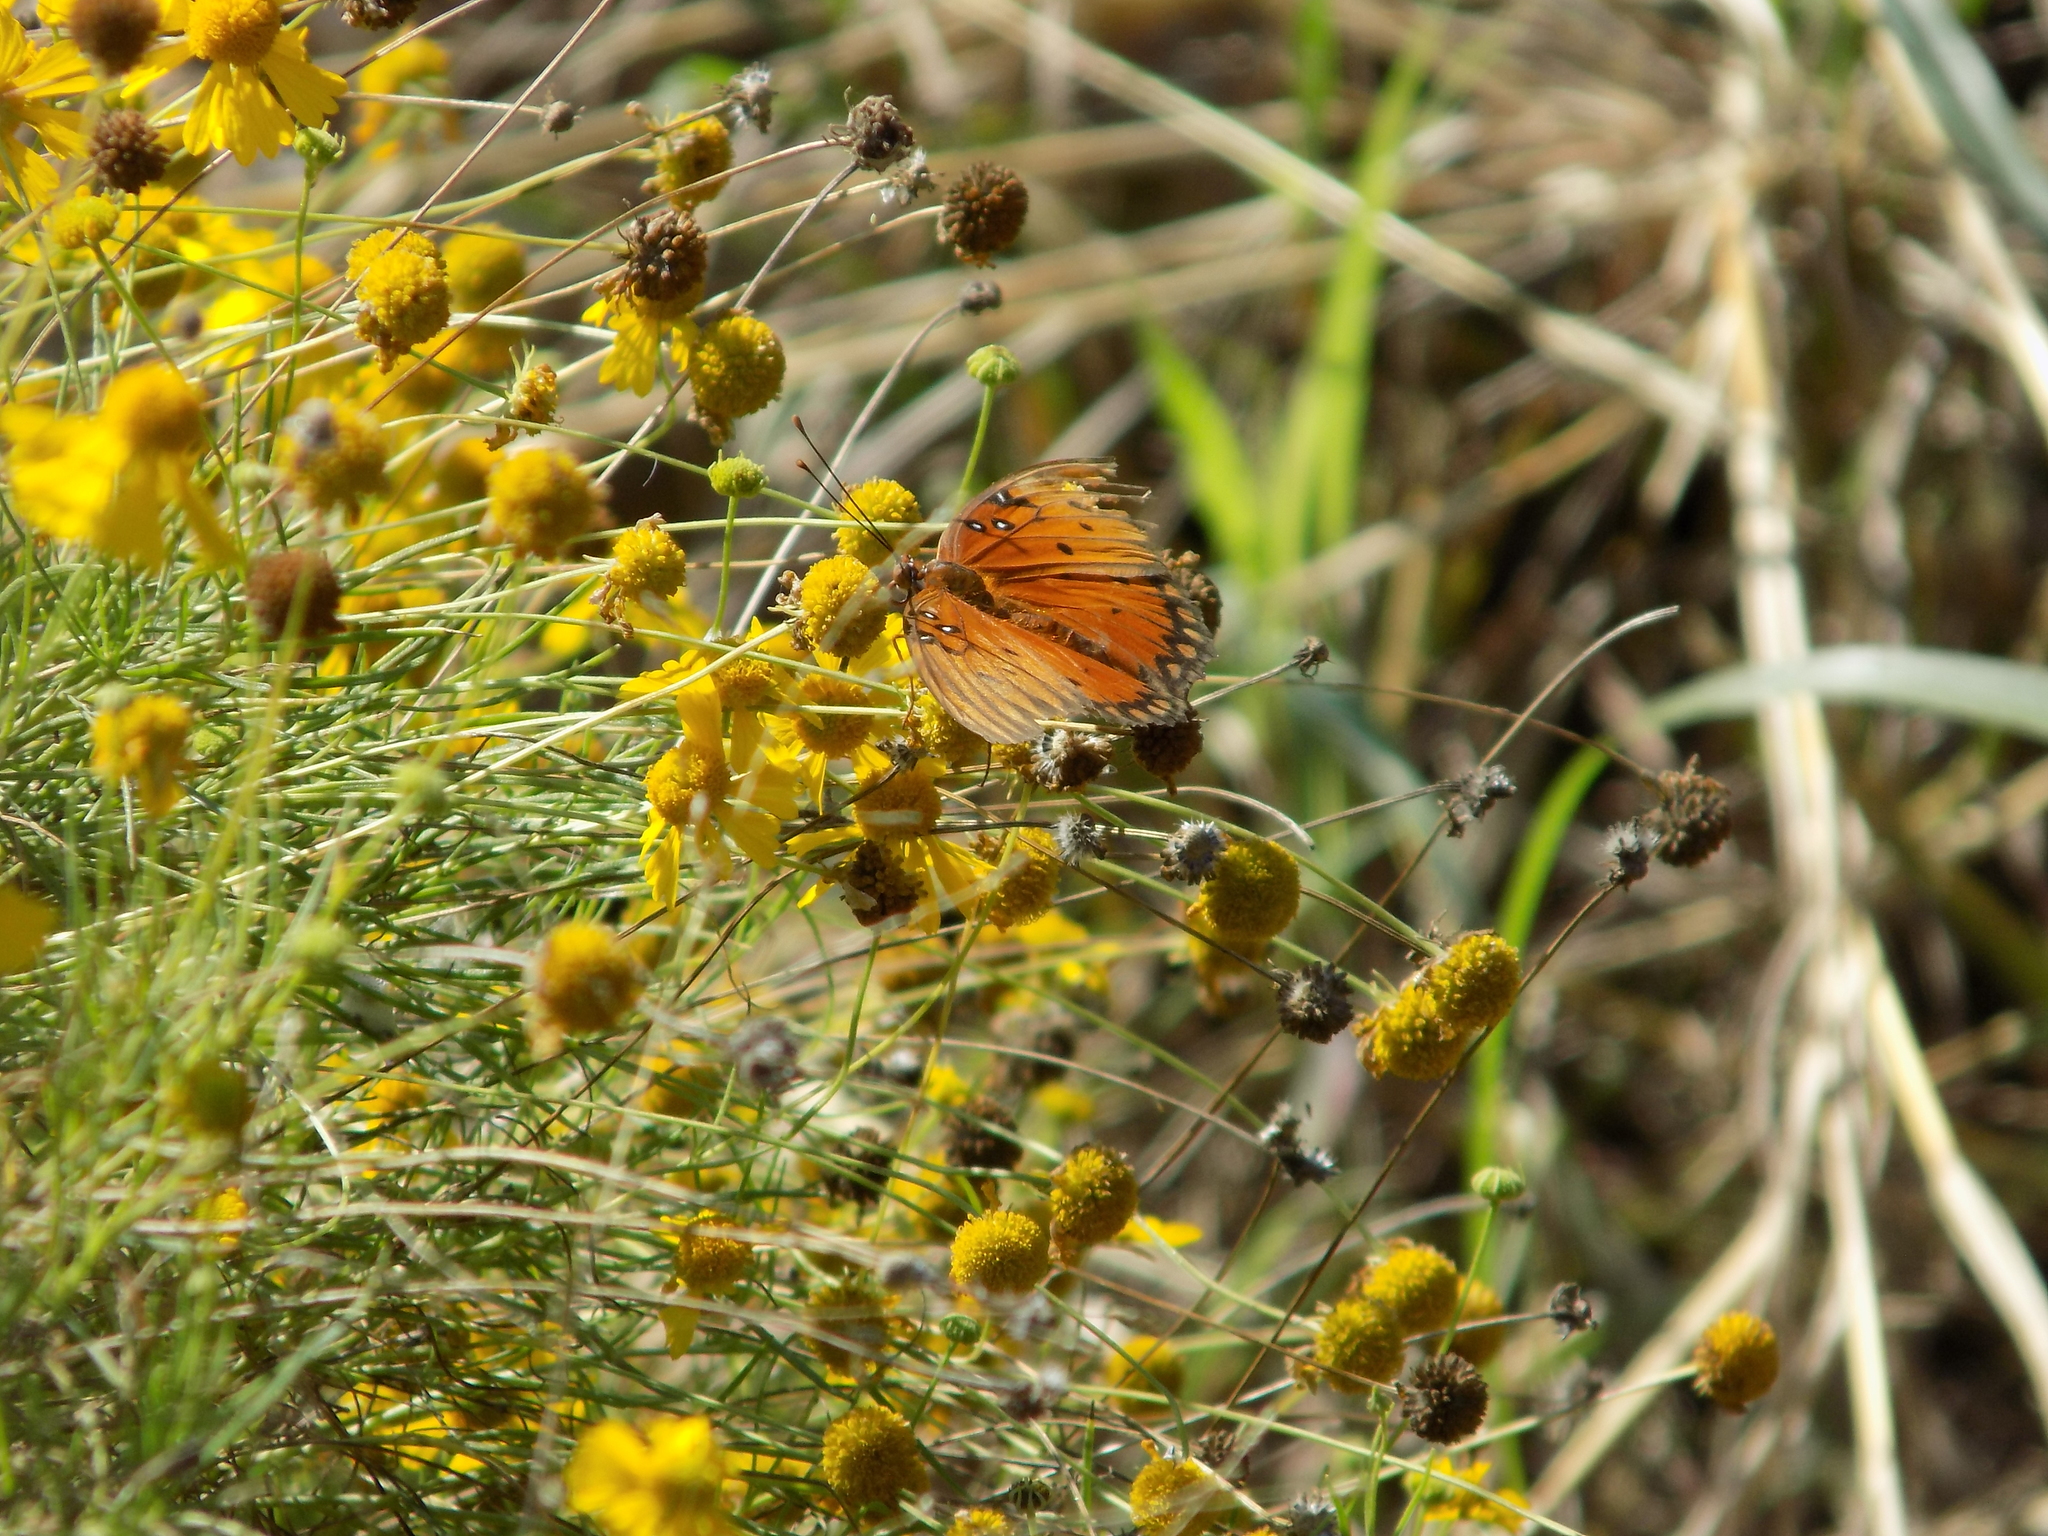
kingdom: Animalia
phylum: Arthropoda
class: Insecta
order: Lepidoptera
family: Nymphalidae
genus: Dione
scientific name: Dione vanillae
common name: Gulf fritillary
